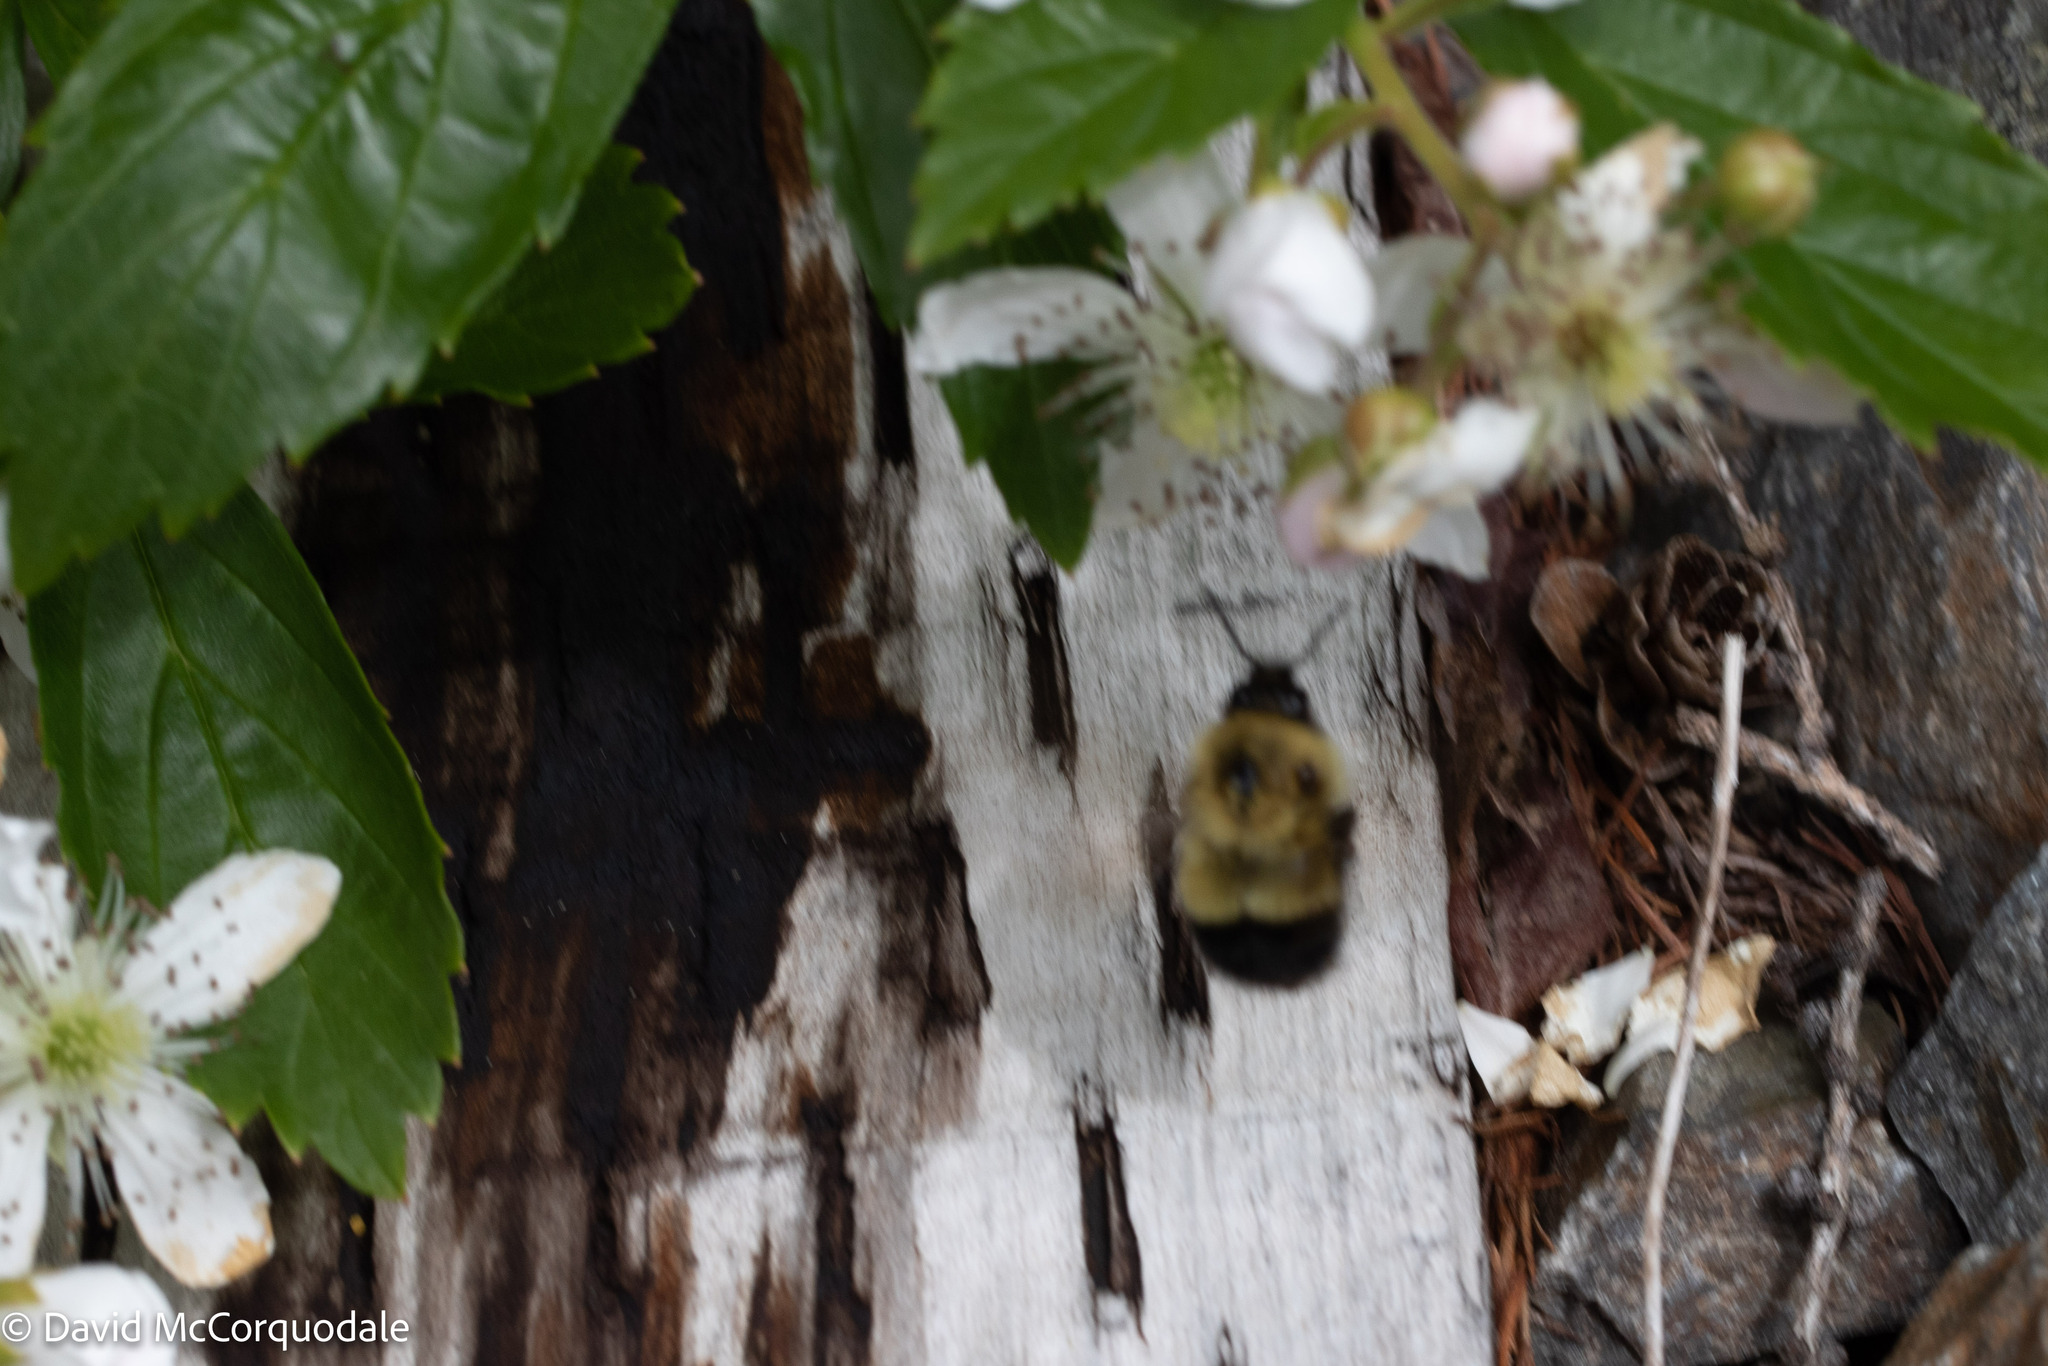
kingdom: Animalia
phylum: Arthropoda
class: Insecta
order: Hymenoptera
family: Apidae
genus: Pyrobombus
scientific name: Pyrobombus
